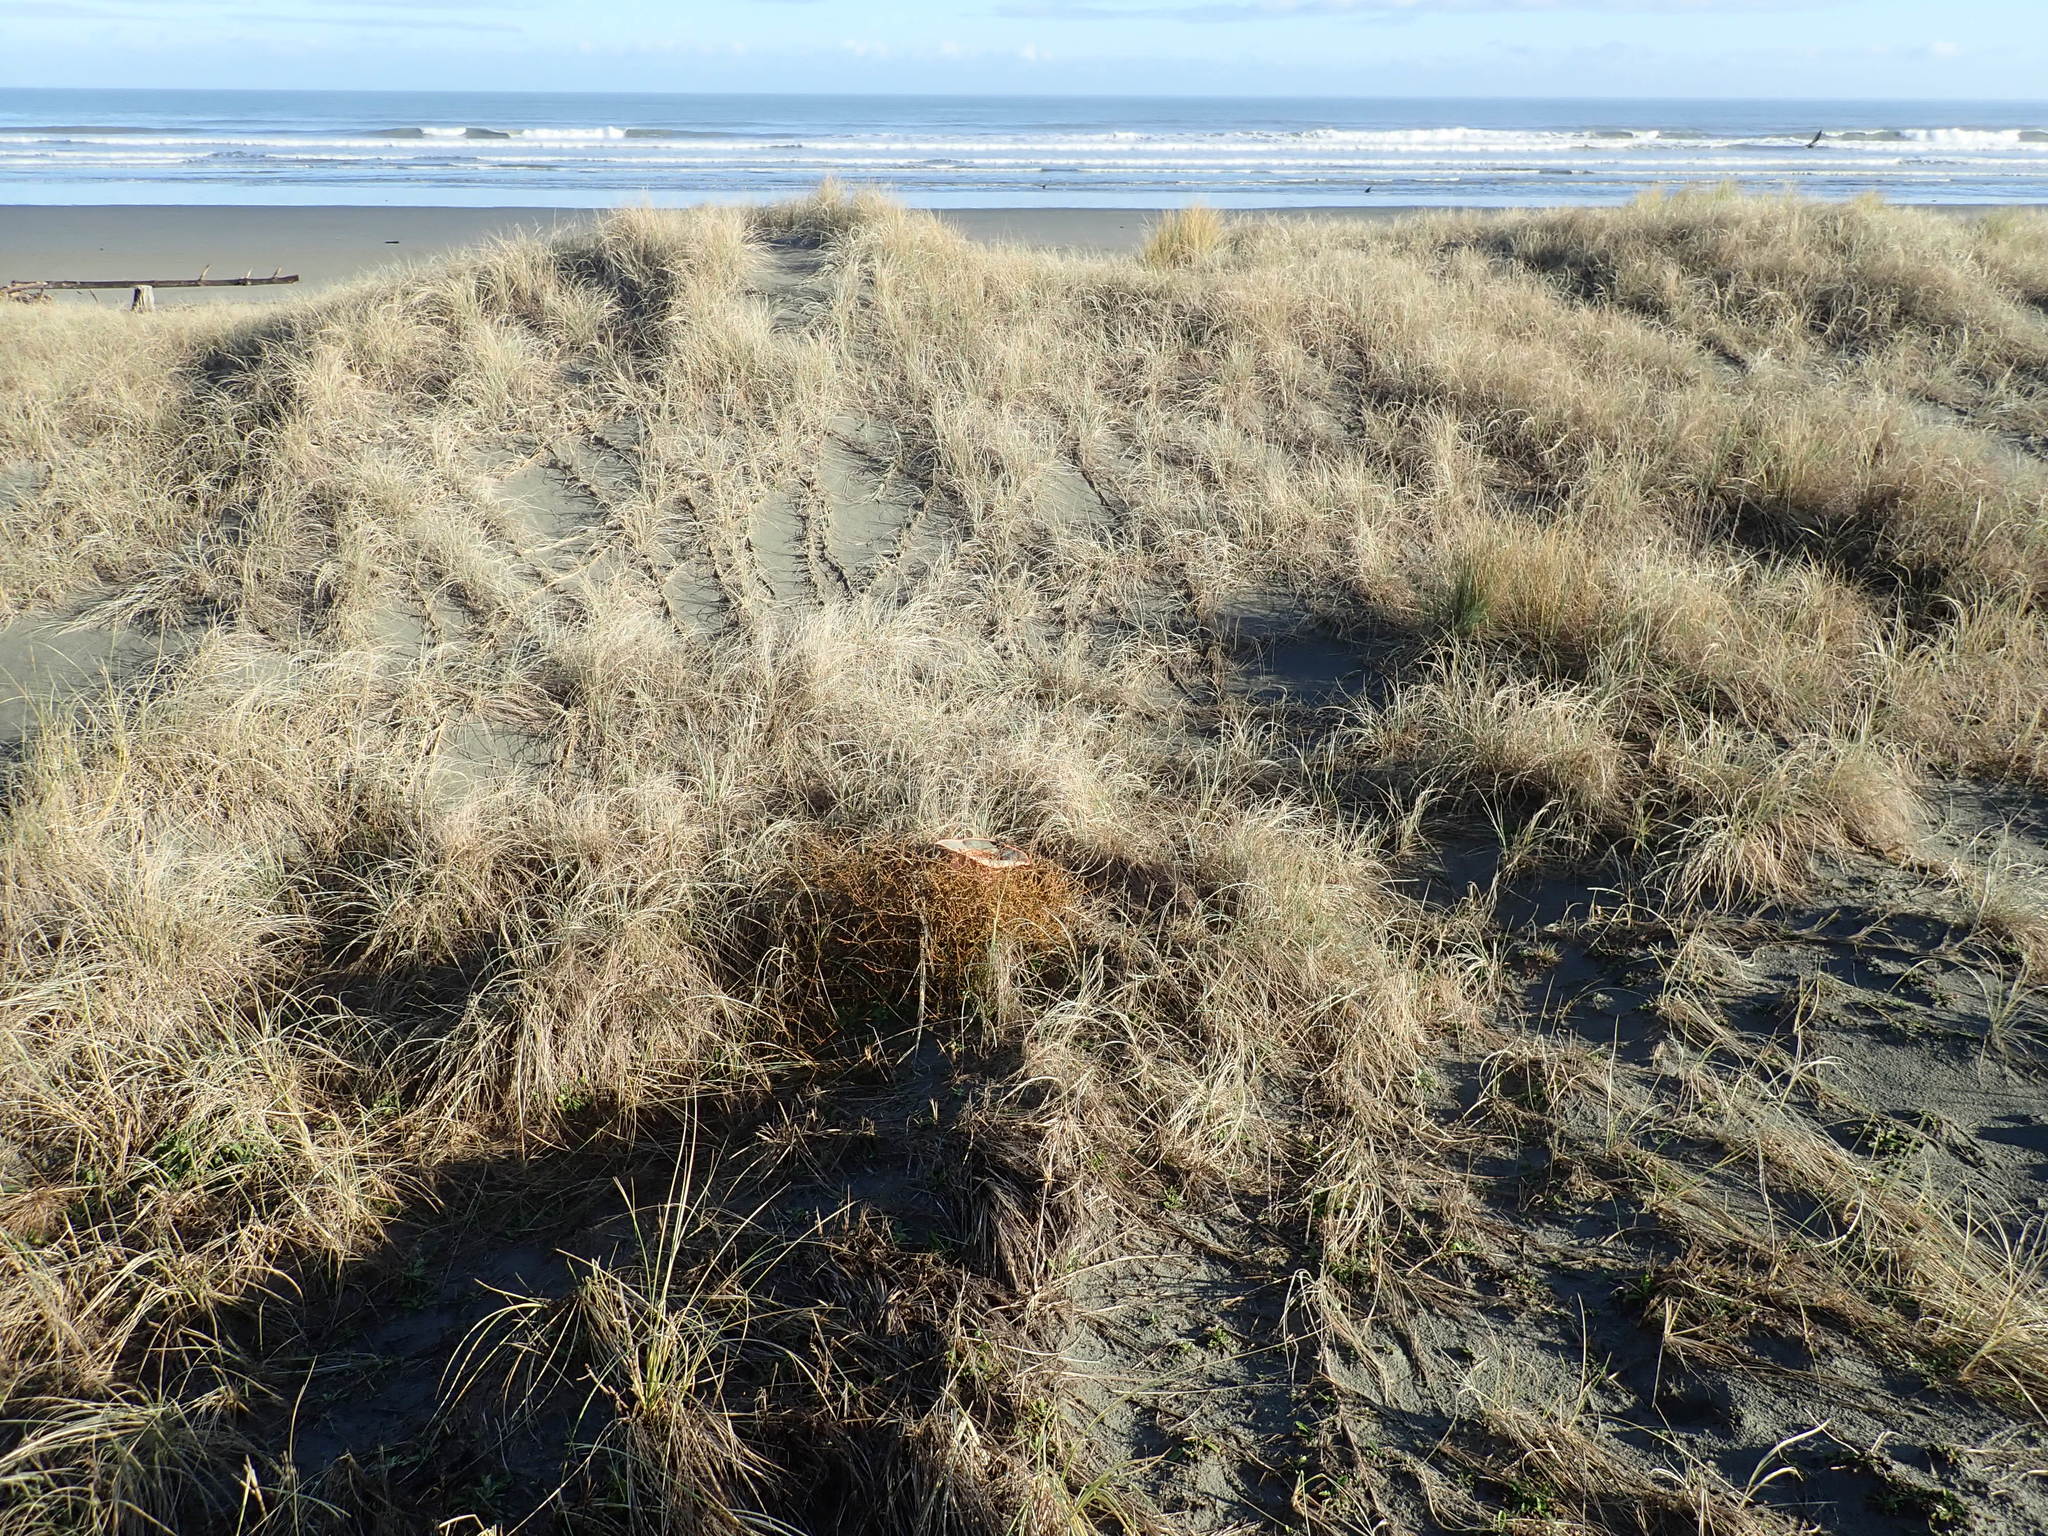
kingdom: Plantae
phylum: Tracheophyta
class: Magnoliopsida
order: Gentianales
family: Rubiaceae
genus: Coprosma
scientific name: Coprosma acerosa
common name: Sand coprosma
